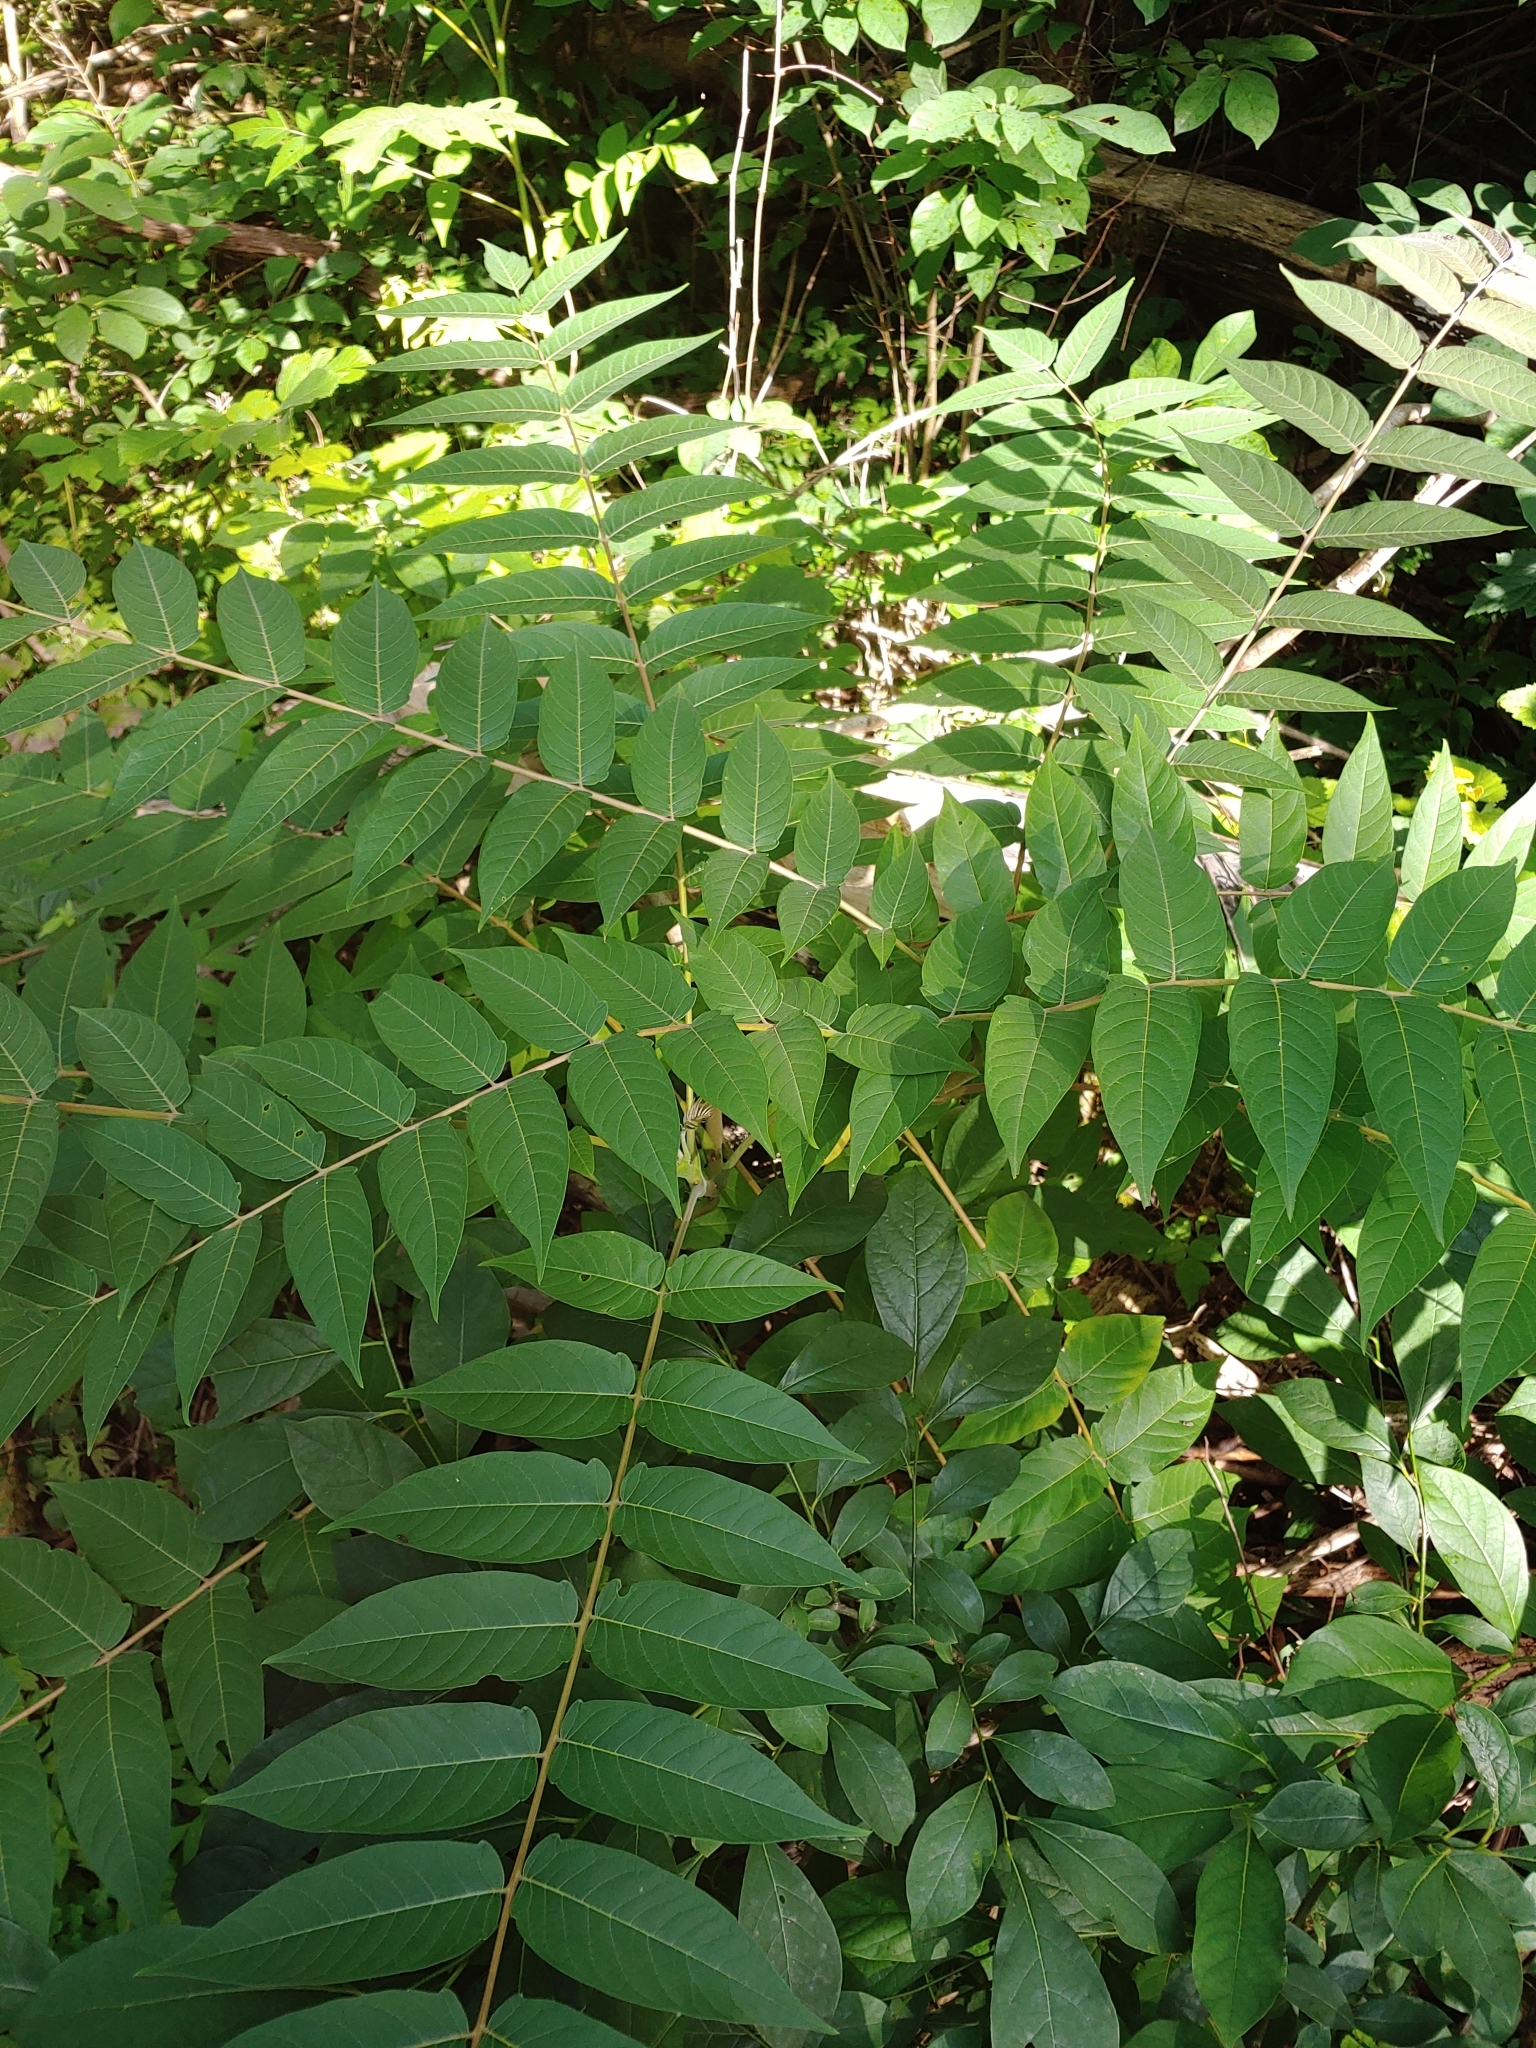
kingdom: Plantae
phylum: Tracheophyta
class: Magnoliopsida
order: Sapindales
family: Simaroubaceae
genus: Ailanthus
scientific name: Ailanthus altissima
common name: Tree-of-heaven
